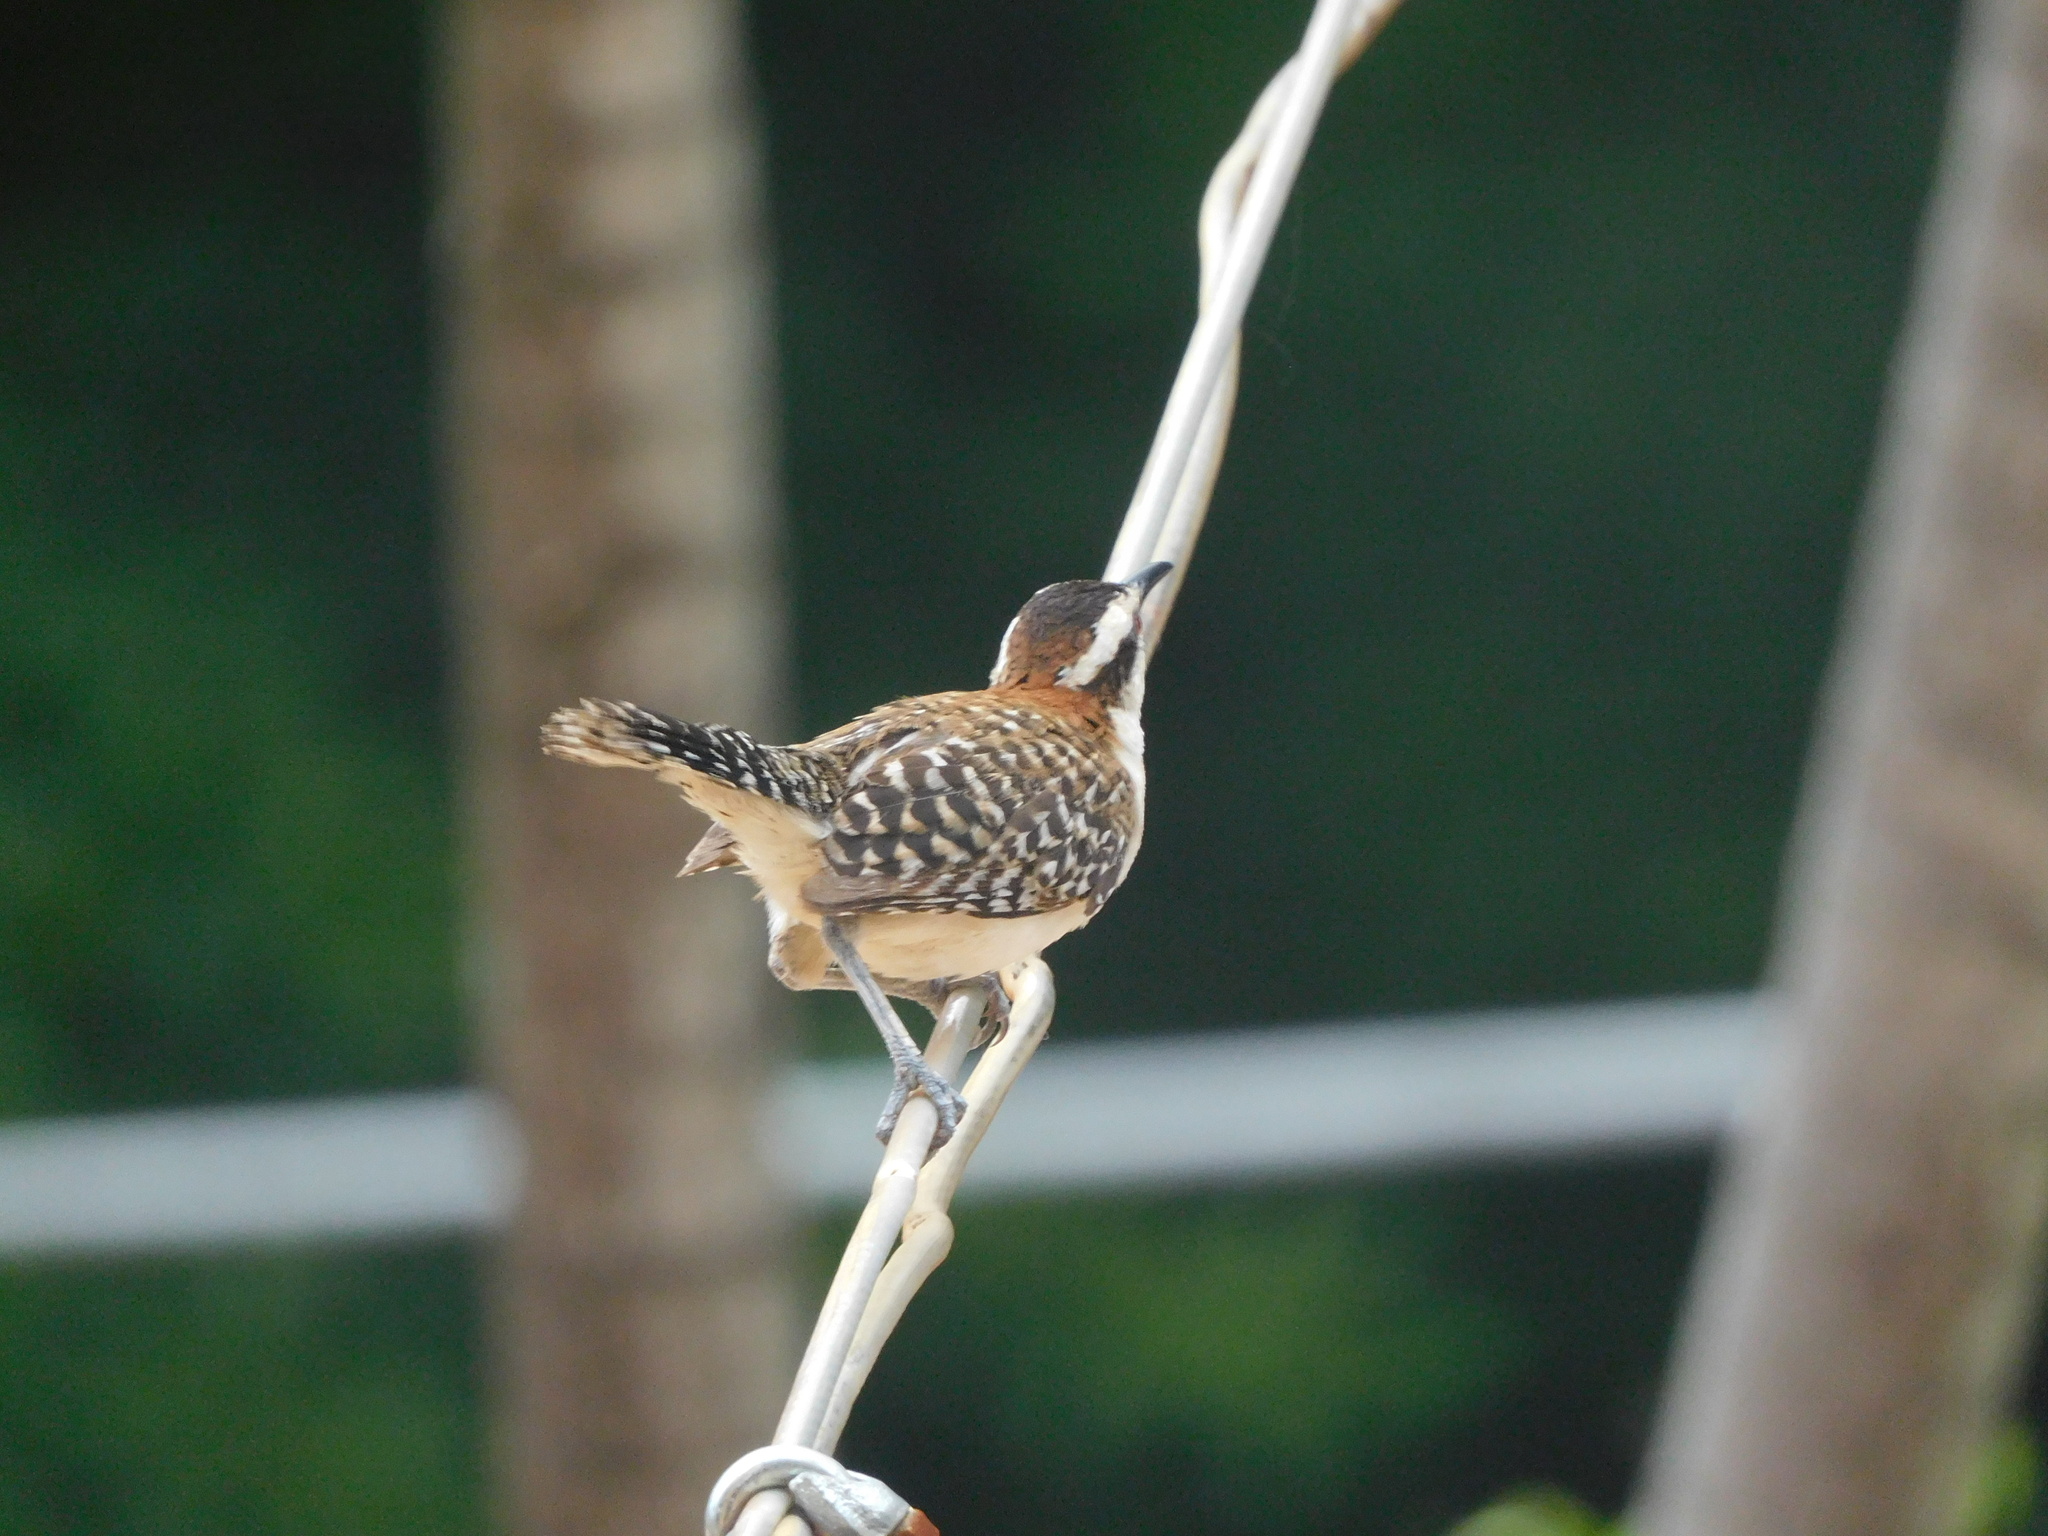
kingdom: Animalia
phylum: Chordata
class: Aves
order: Passeriformes
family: Troglodytidae
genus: Campylorhynchus
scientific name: Campylorhynchus rufinucha
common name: Rufous-naped wren
